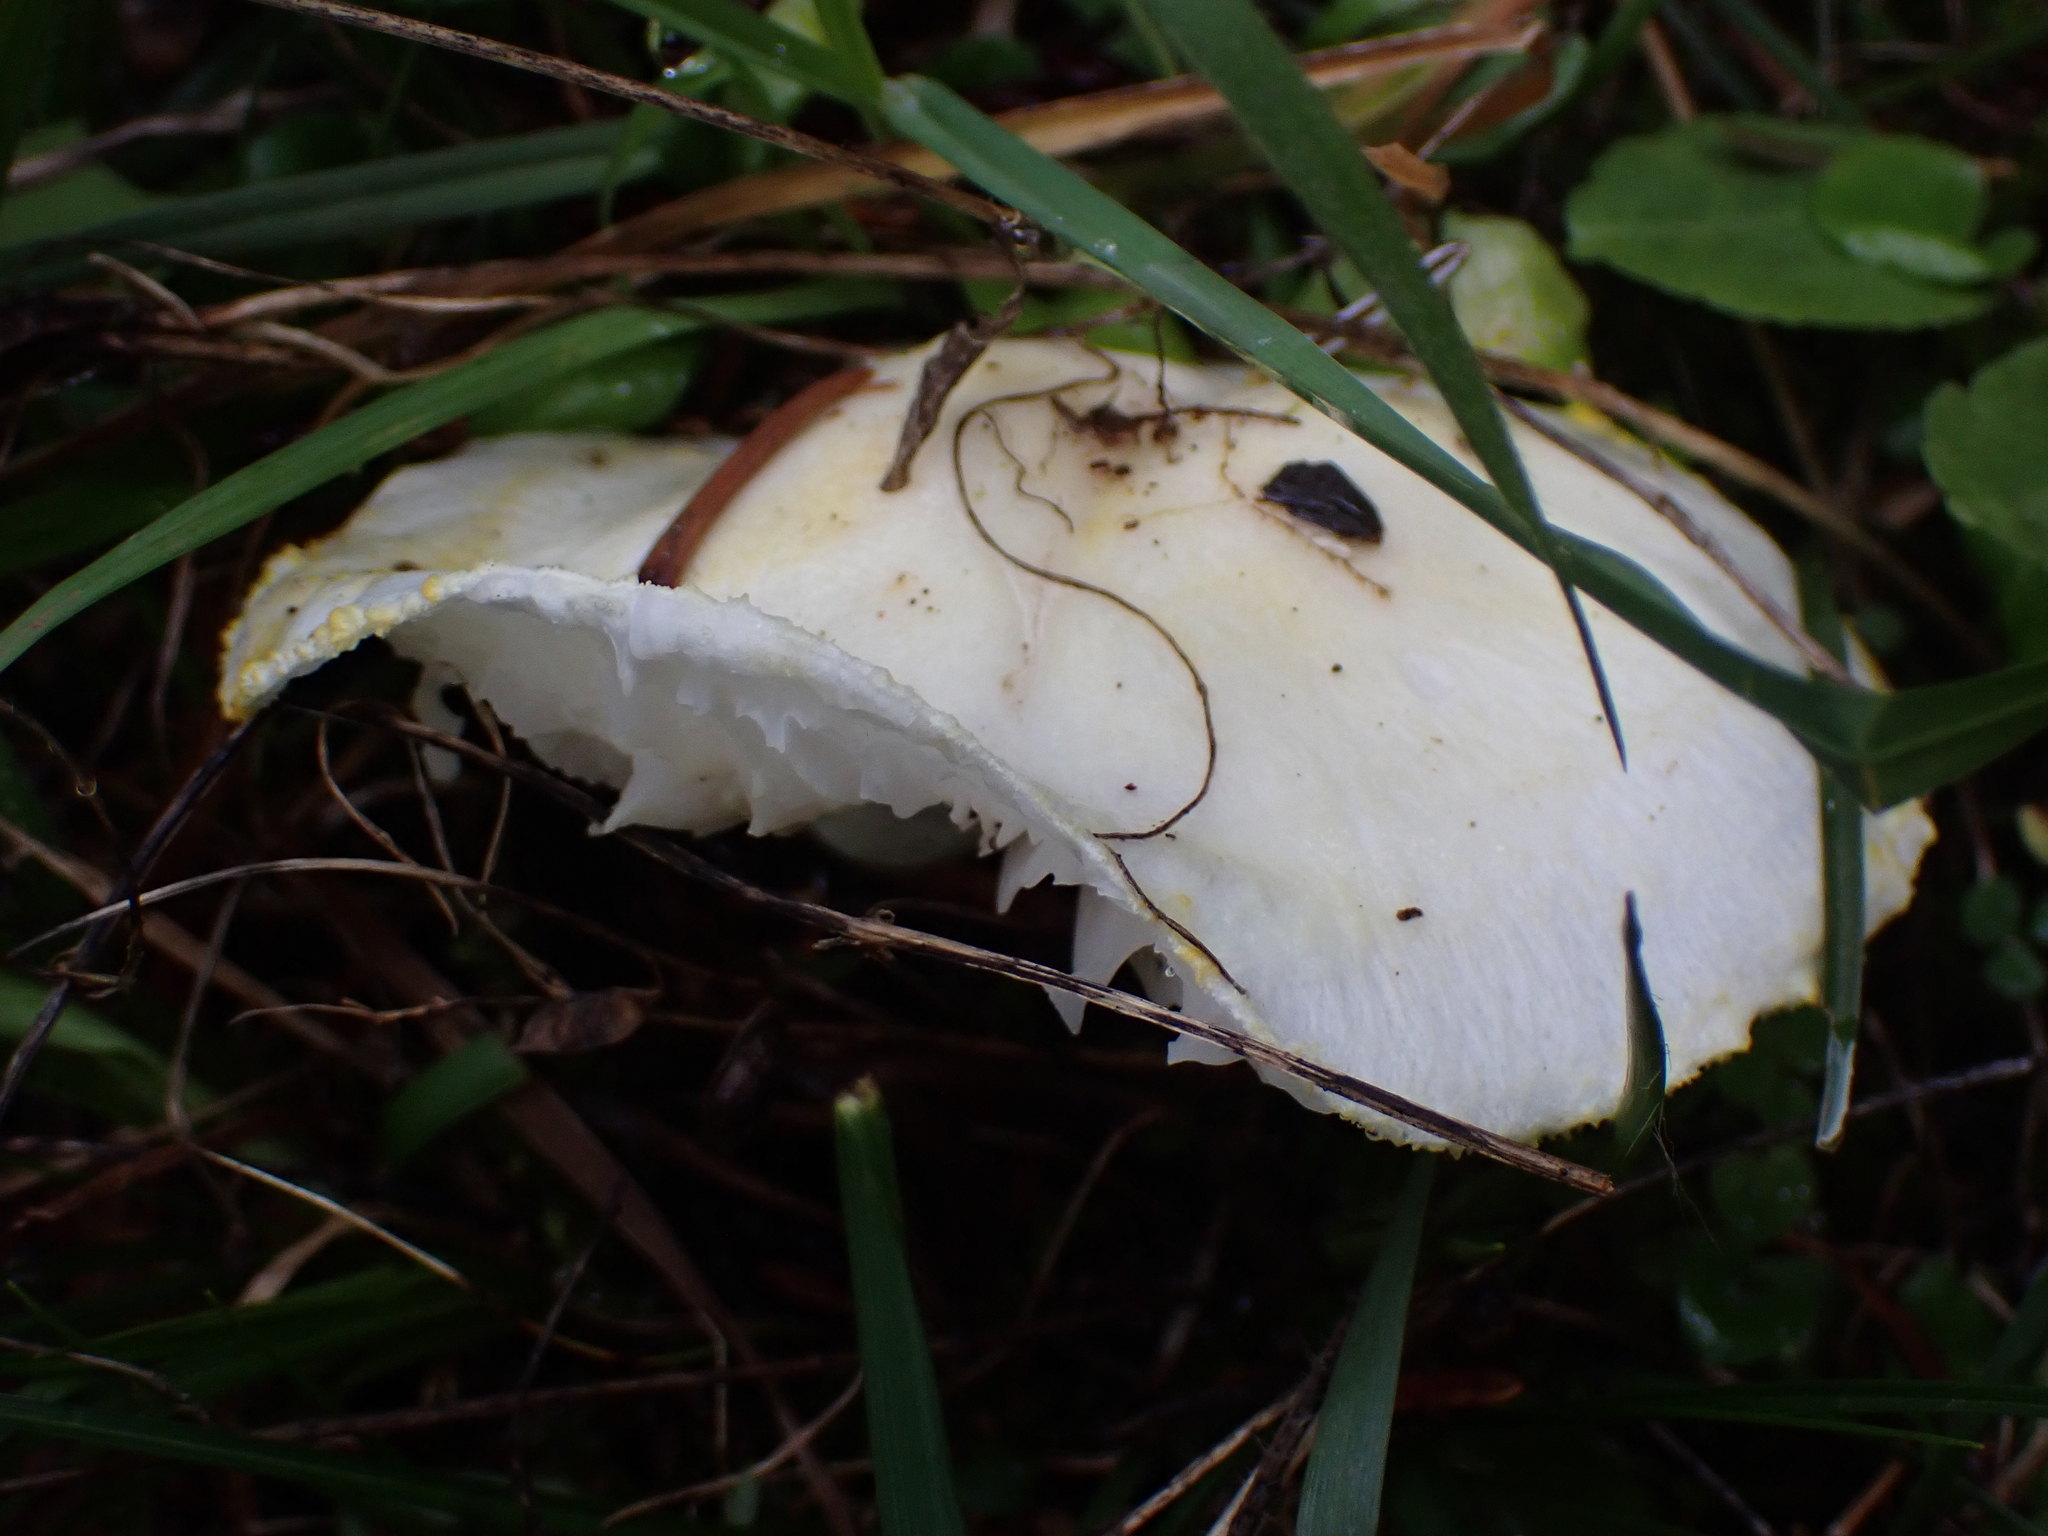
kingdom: Fungi
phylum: Basidiomycota
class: Agaricomycetes
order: Agaricales
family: Hygrophoraceae
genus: Hygrophorus
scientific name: Hygrophorus chrysodon
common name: Gold flecked woodwax
